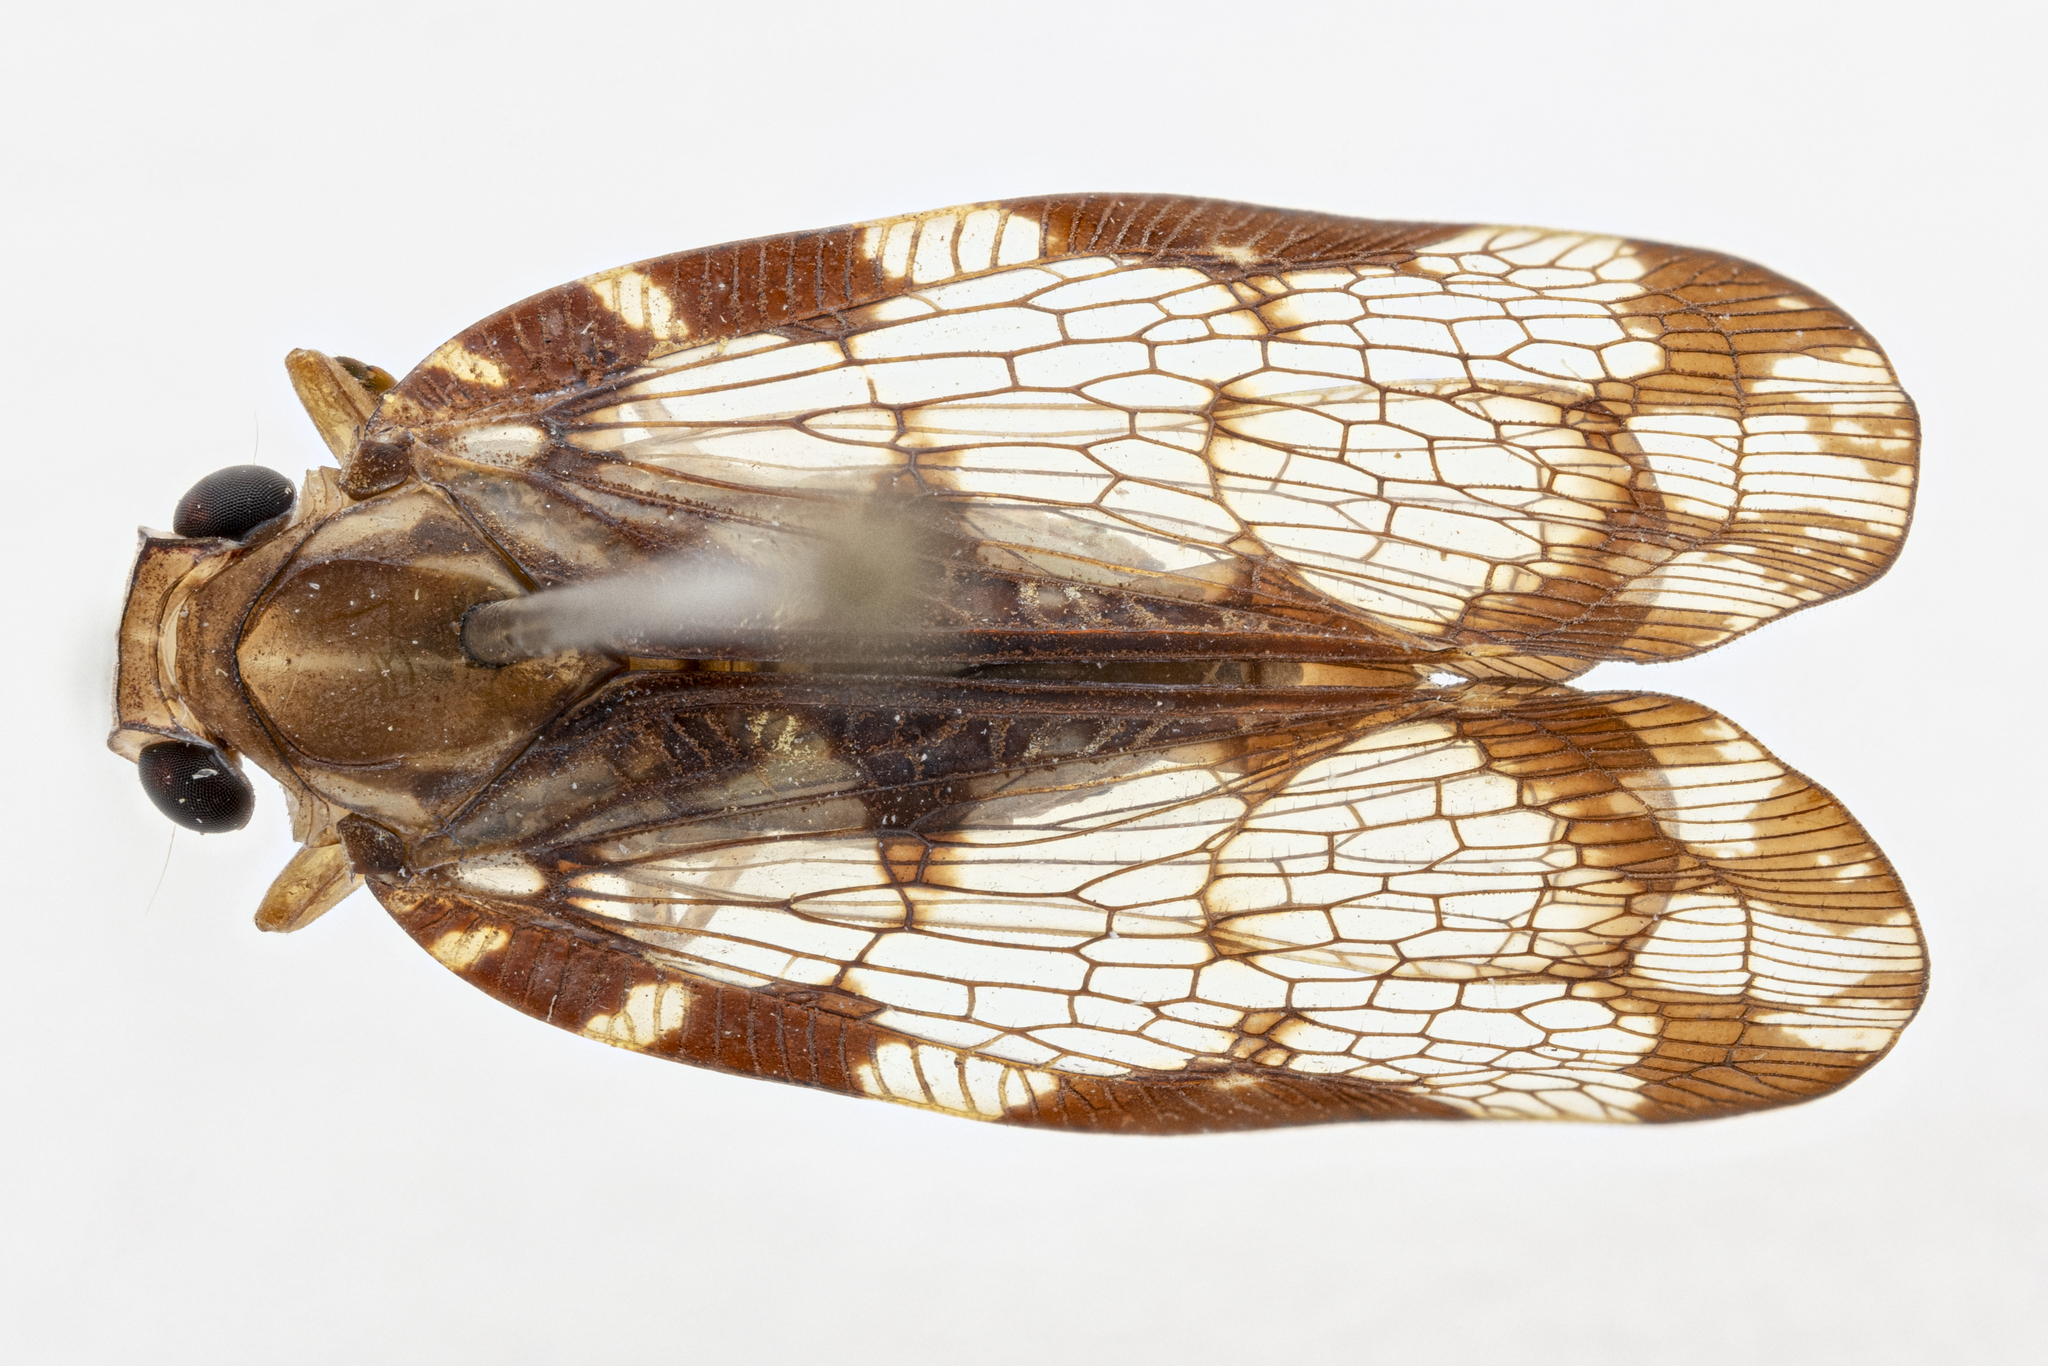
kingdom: Animalia
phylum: Arthropoda
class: Insecta
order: Hemiptera
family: Nogodinidae
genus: Nogodina
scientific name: Nogodina reticulata
